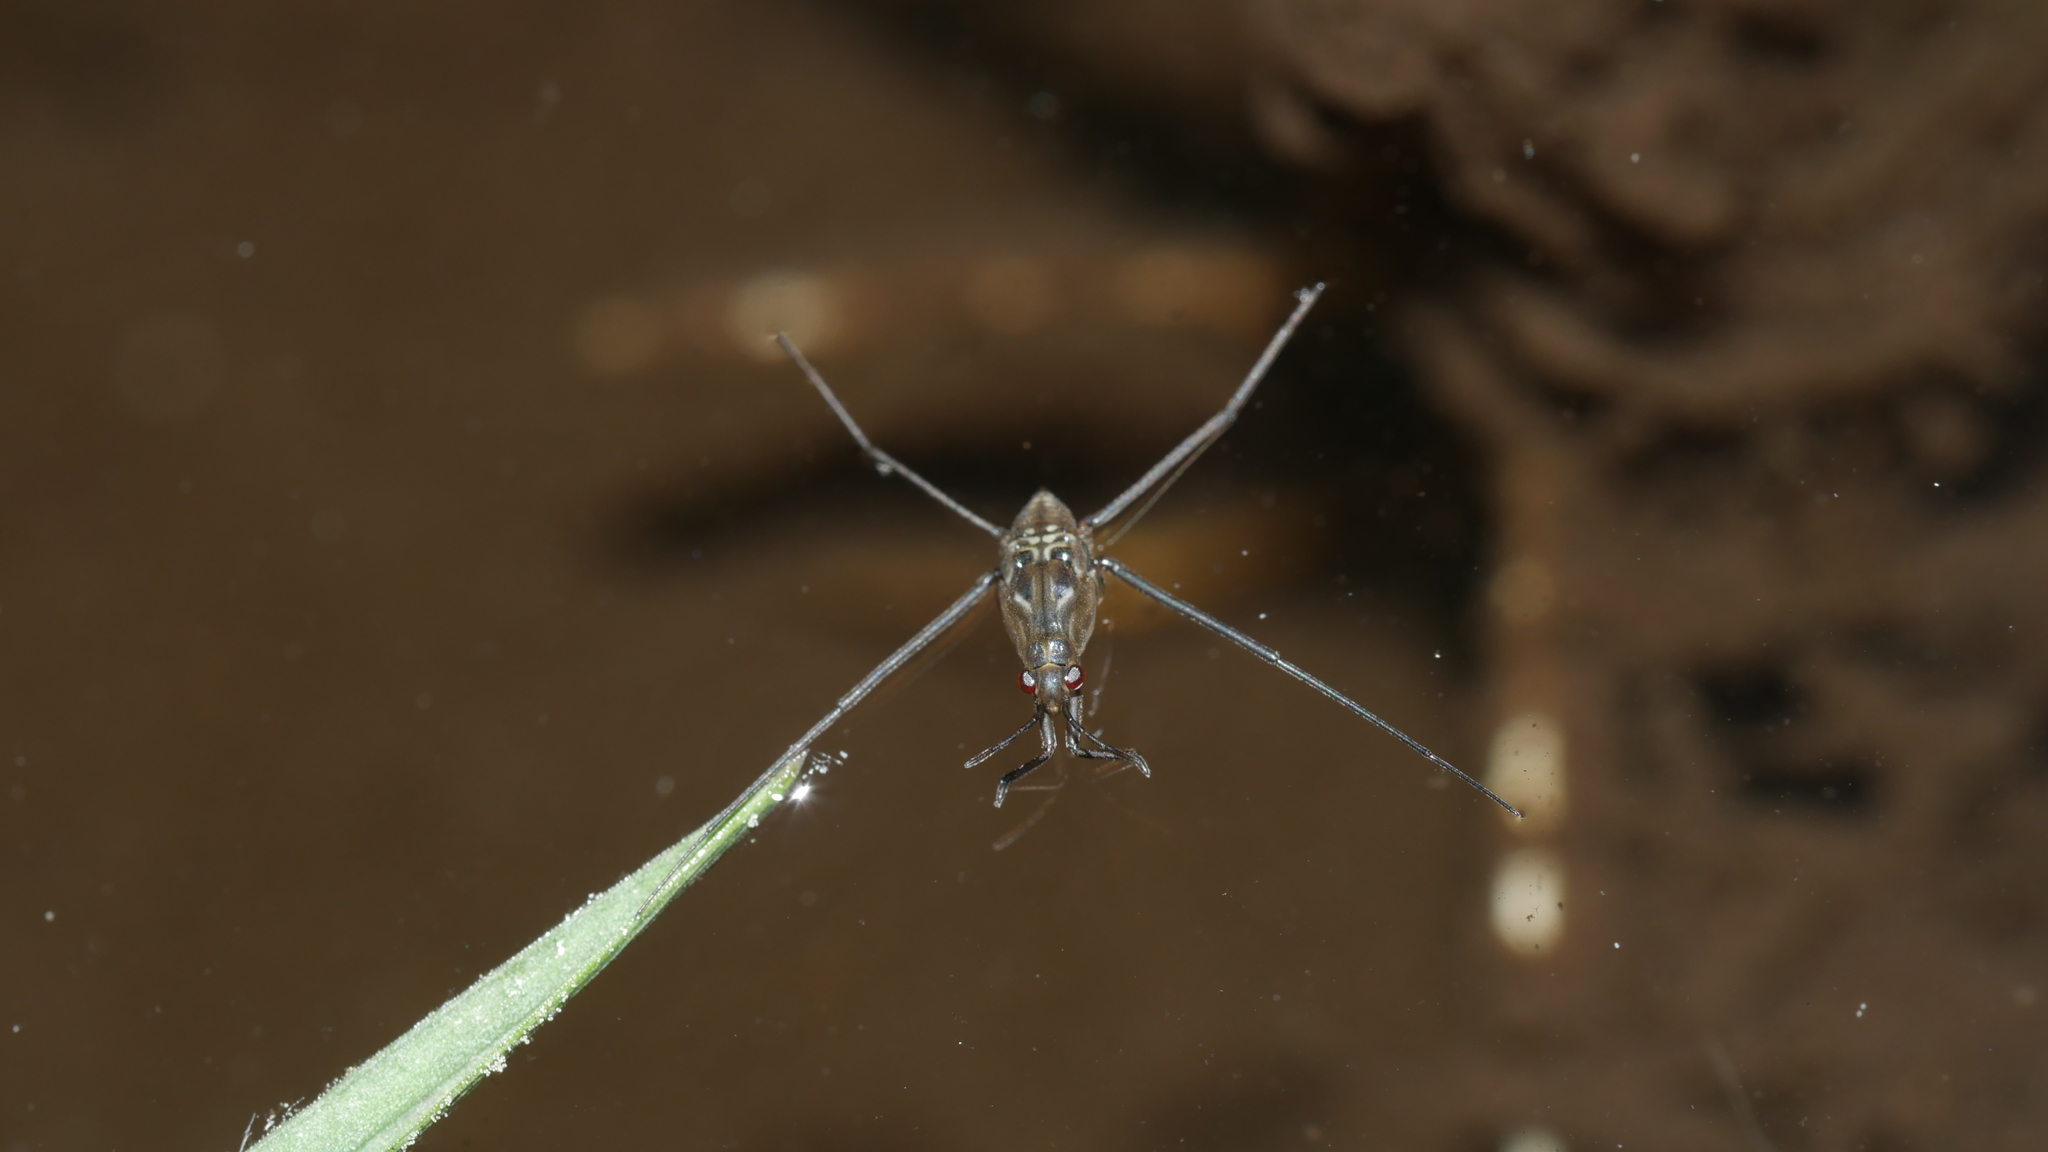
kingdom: Animalia
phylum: Arthropoda
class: Insecta
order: Hemiptera
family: Gerridae
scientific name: Gerridae
